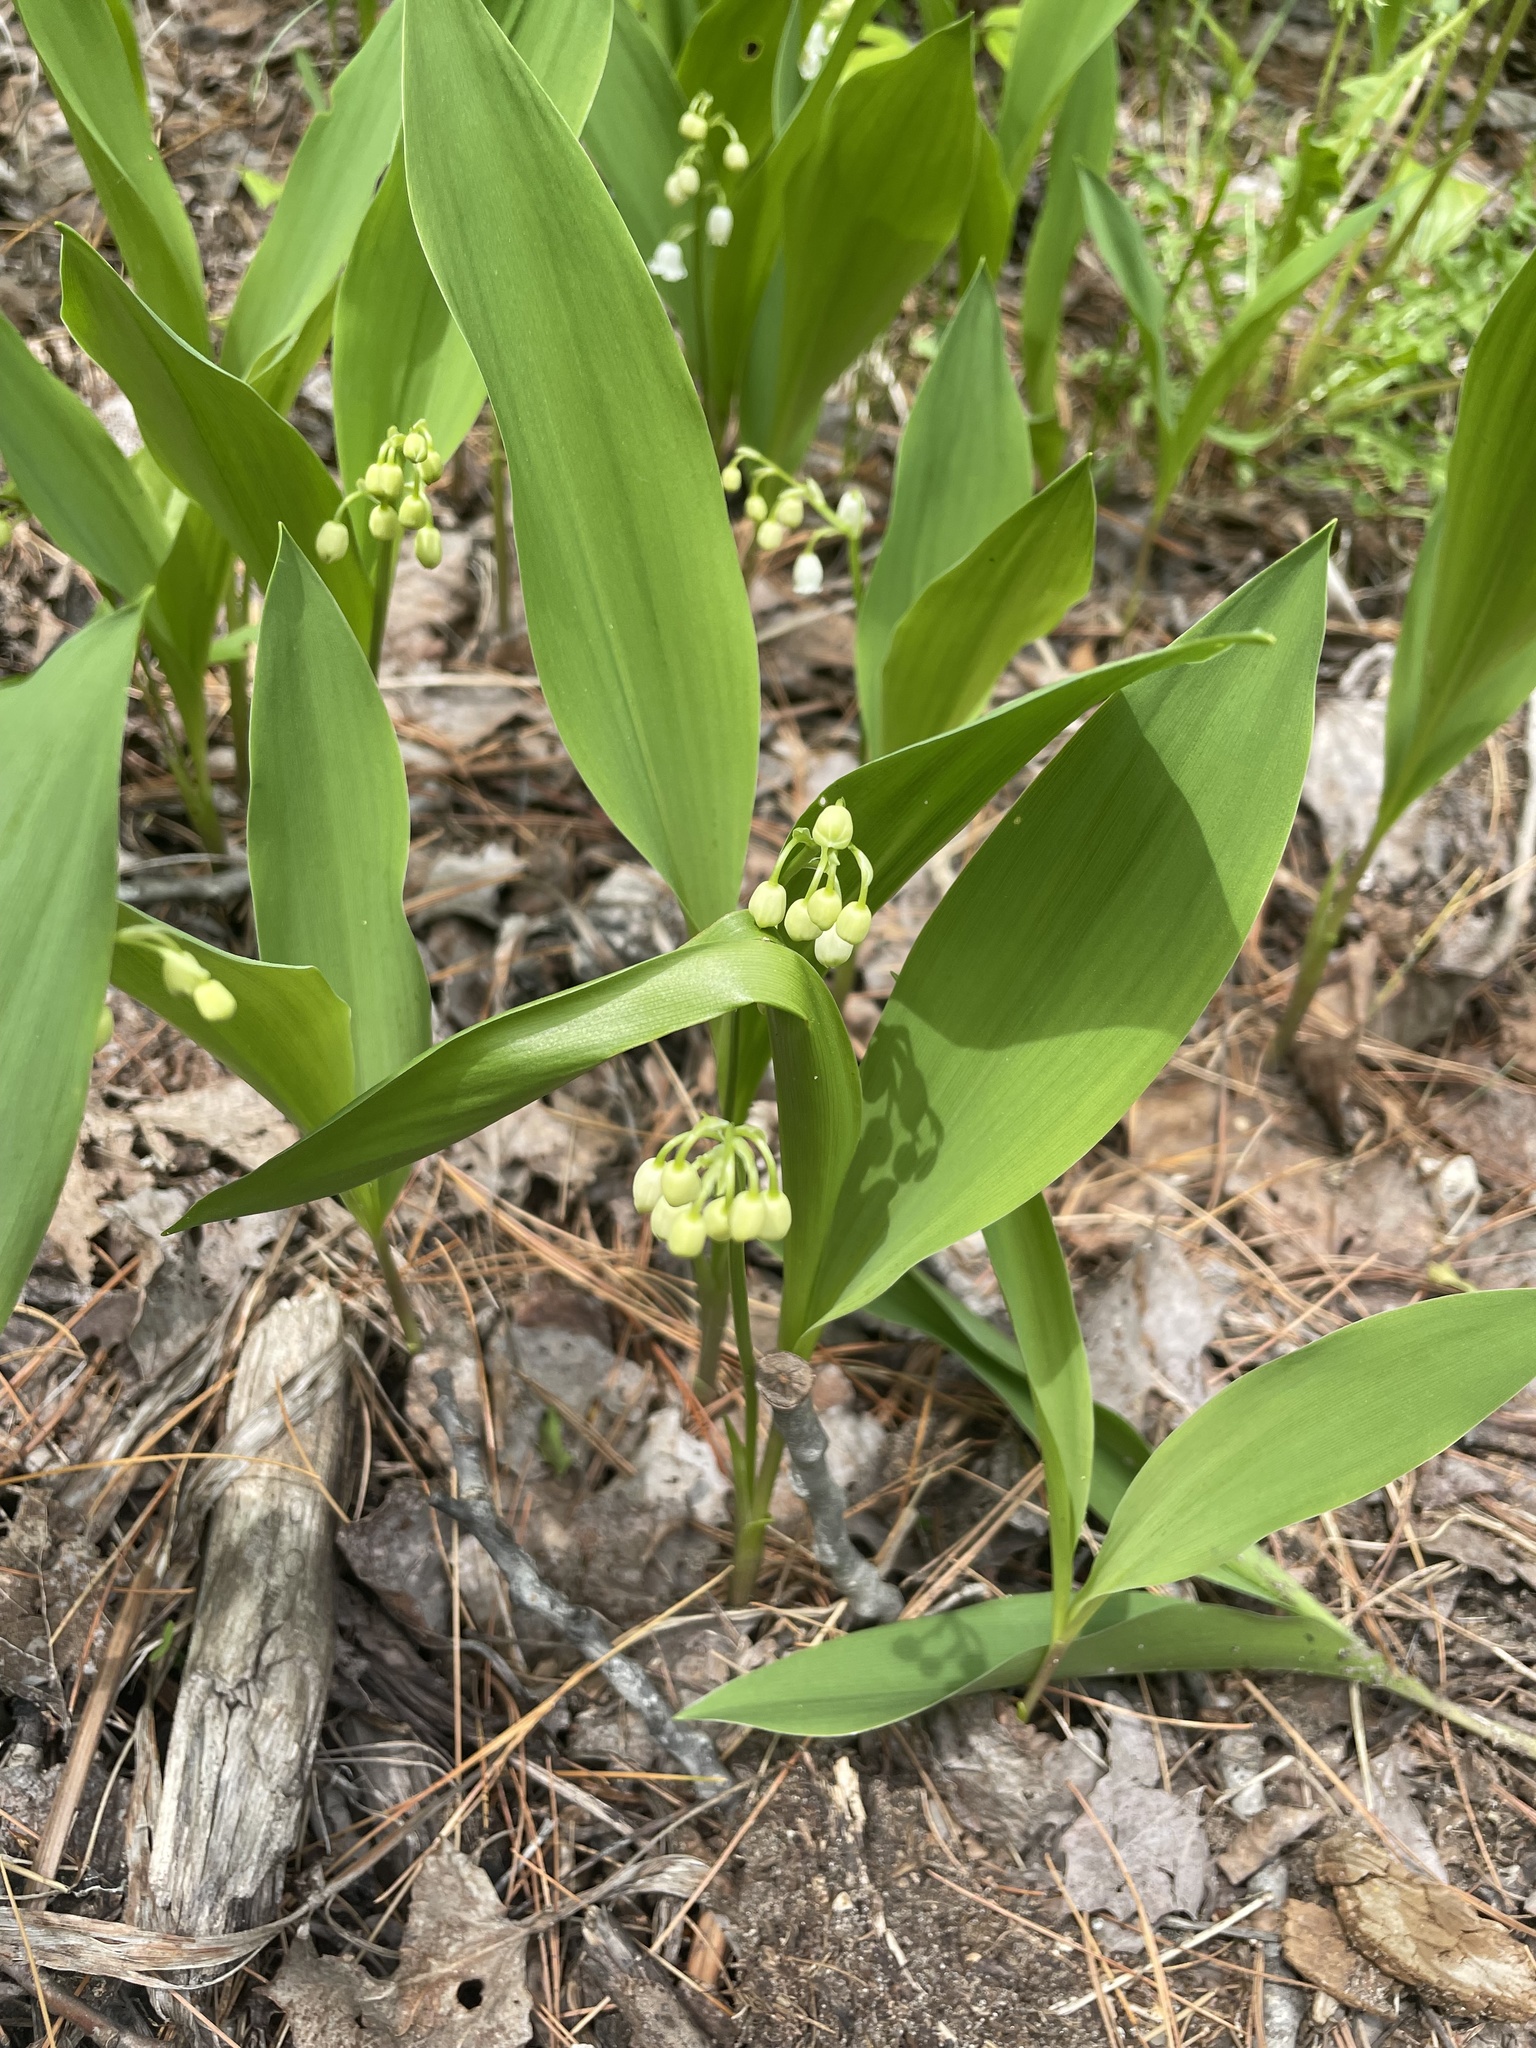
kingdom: Plantae
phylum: Tracheophyta
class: Liliopsida
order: Asparagales
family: Asparagaceae
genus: Convallaria
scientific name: Convallaria majalis
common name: Lily-of-the-valley
